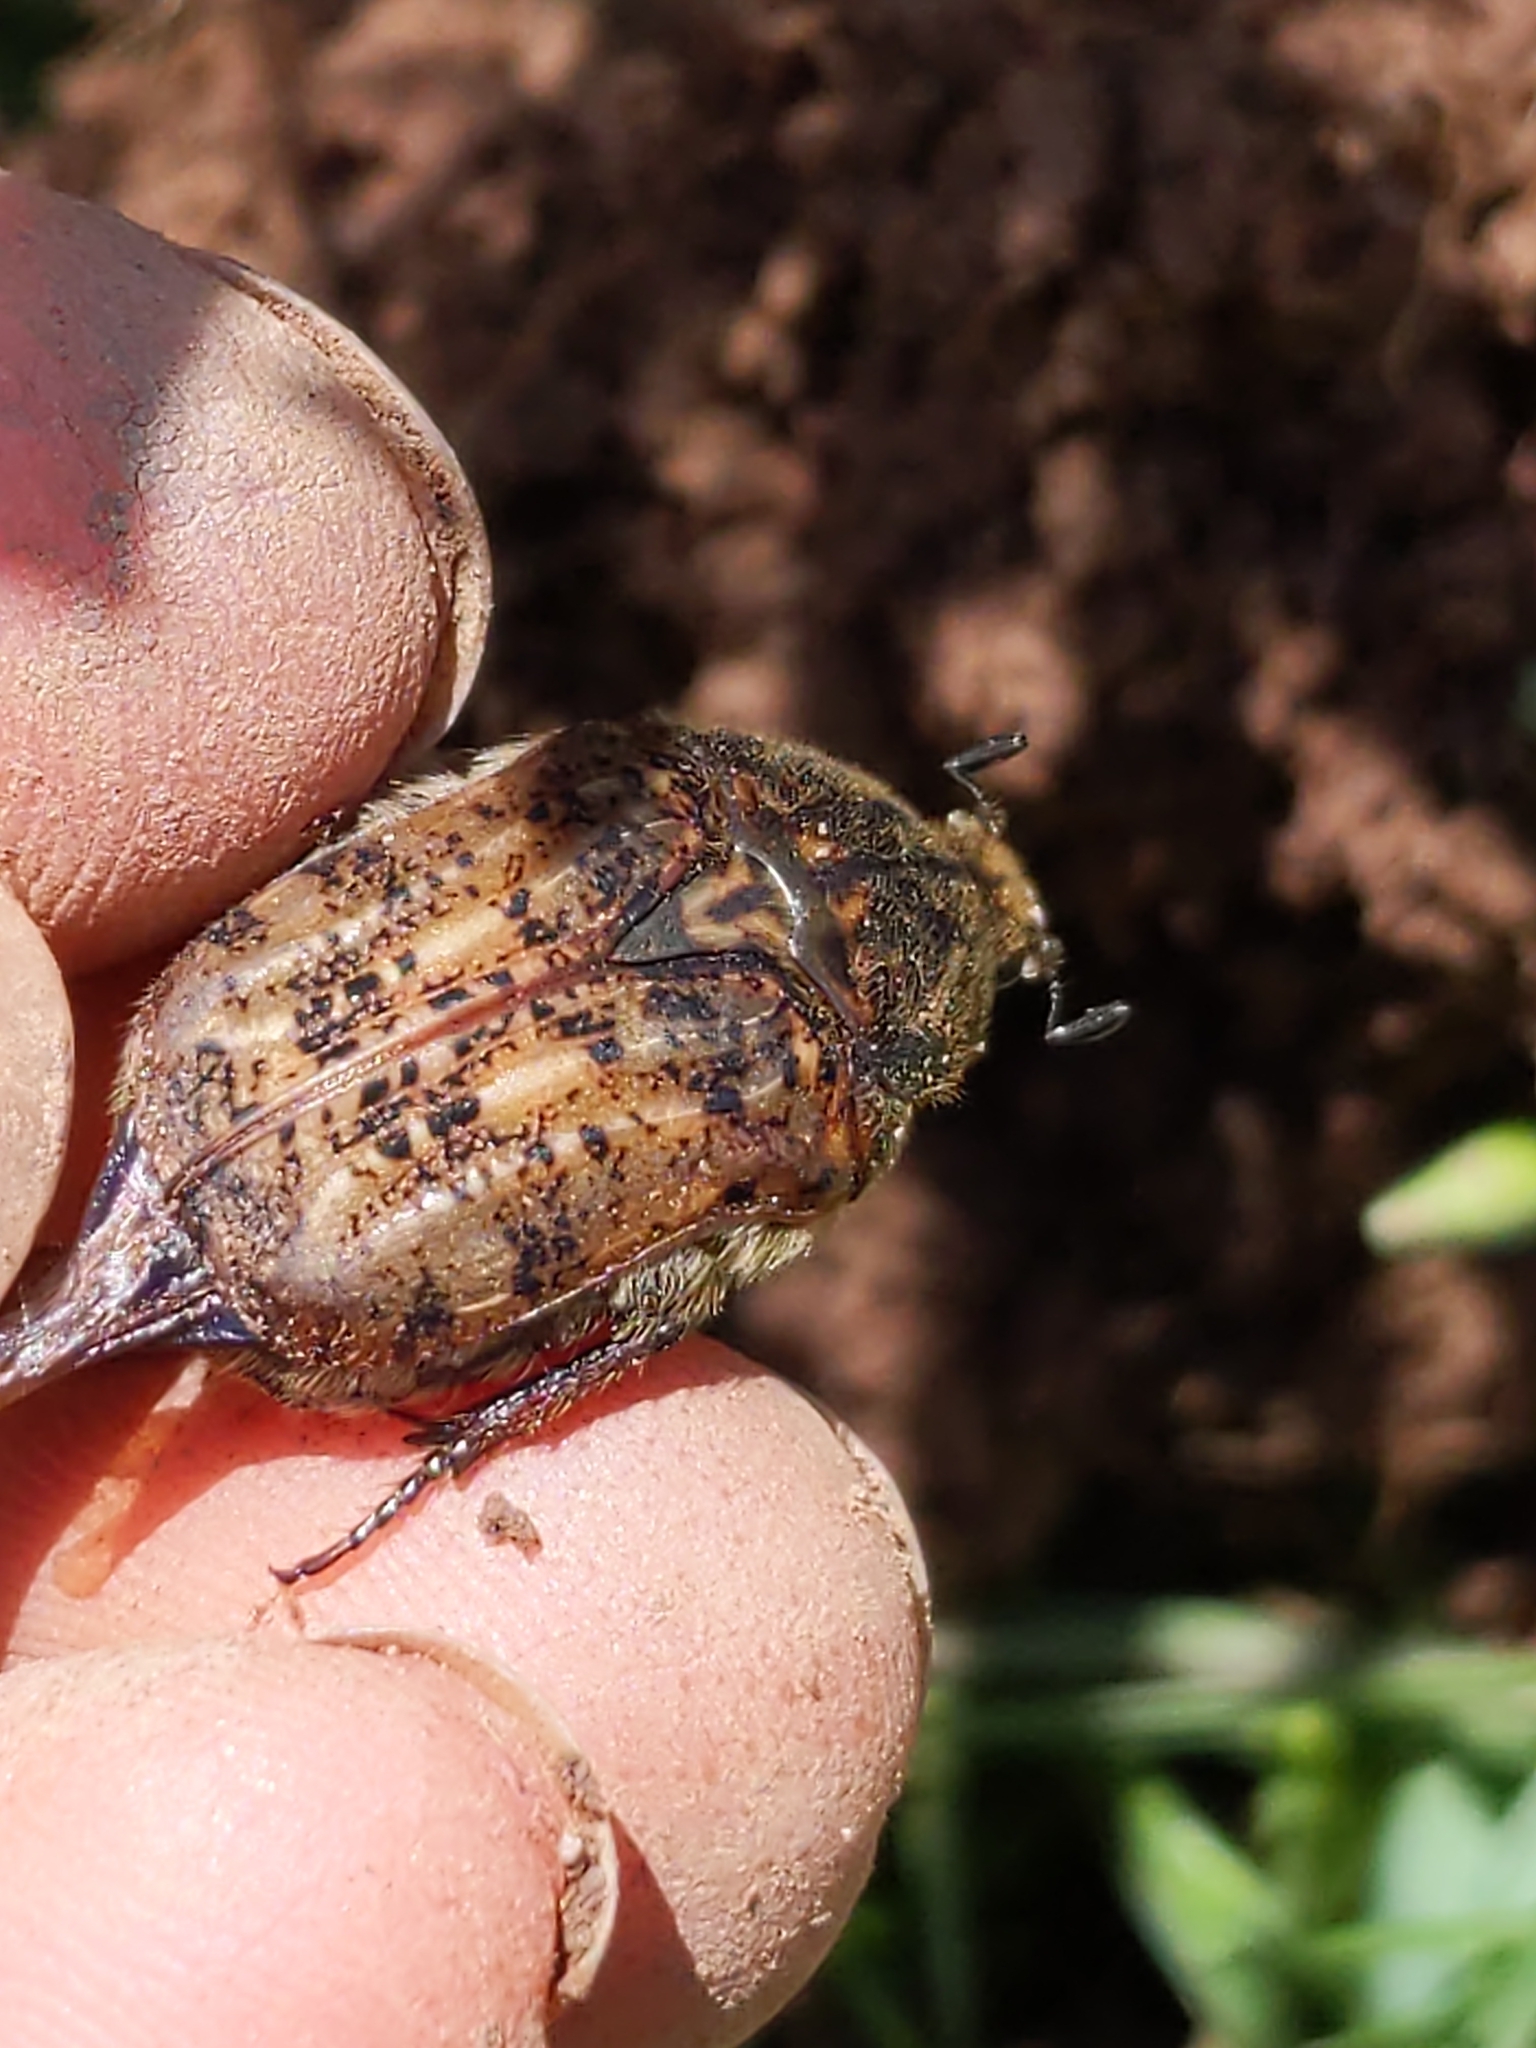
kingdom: Animalia
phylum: Arthropoda
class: Insecta
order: Coleoptera
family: Scarabaeidae
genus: Euphoria
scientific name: Euphoria inda
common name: Bumble flower beetle
